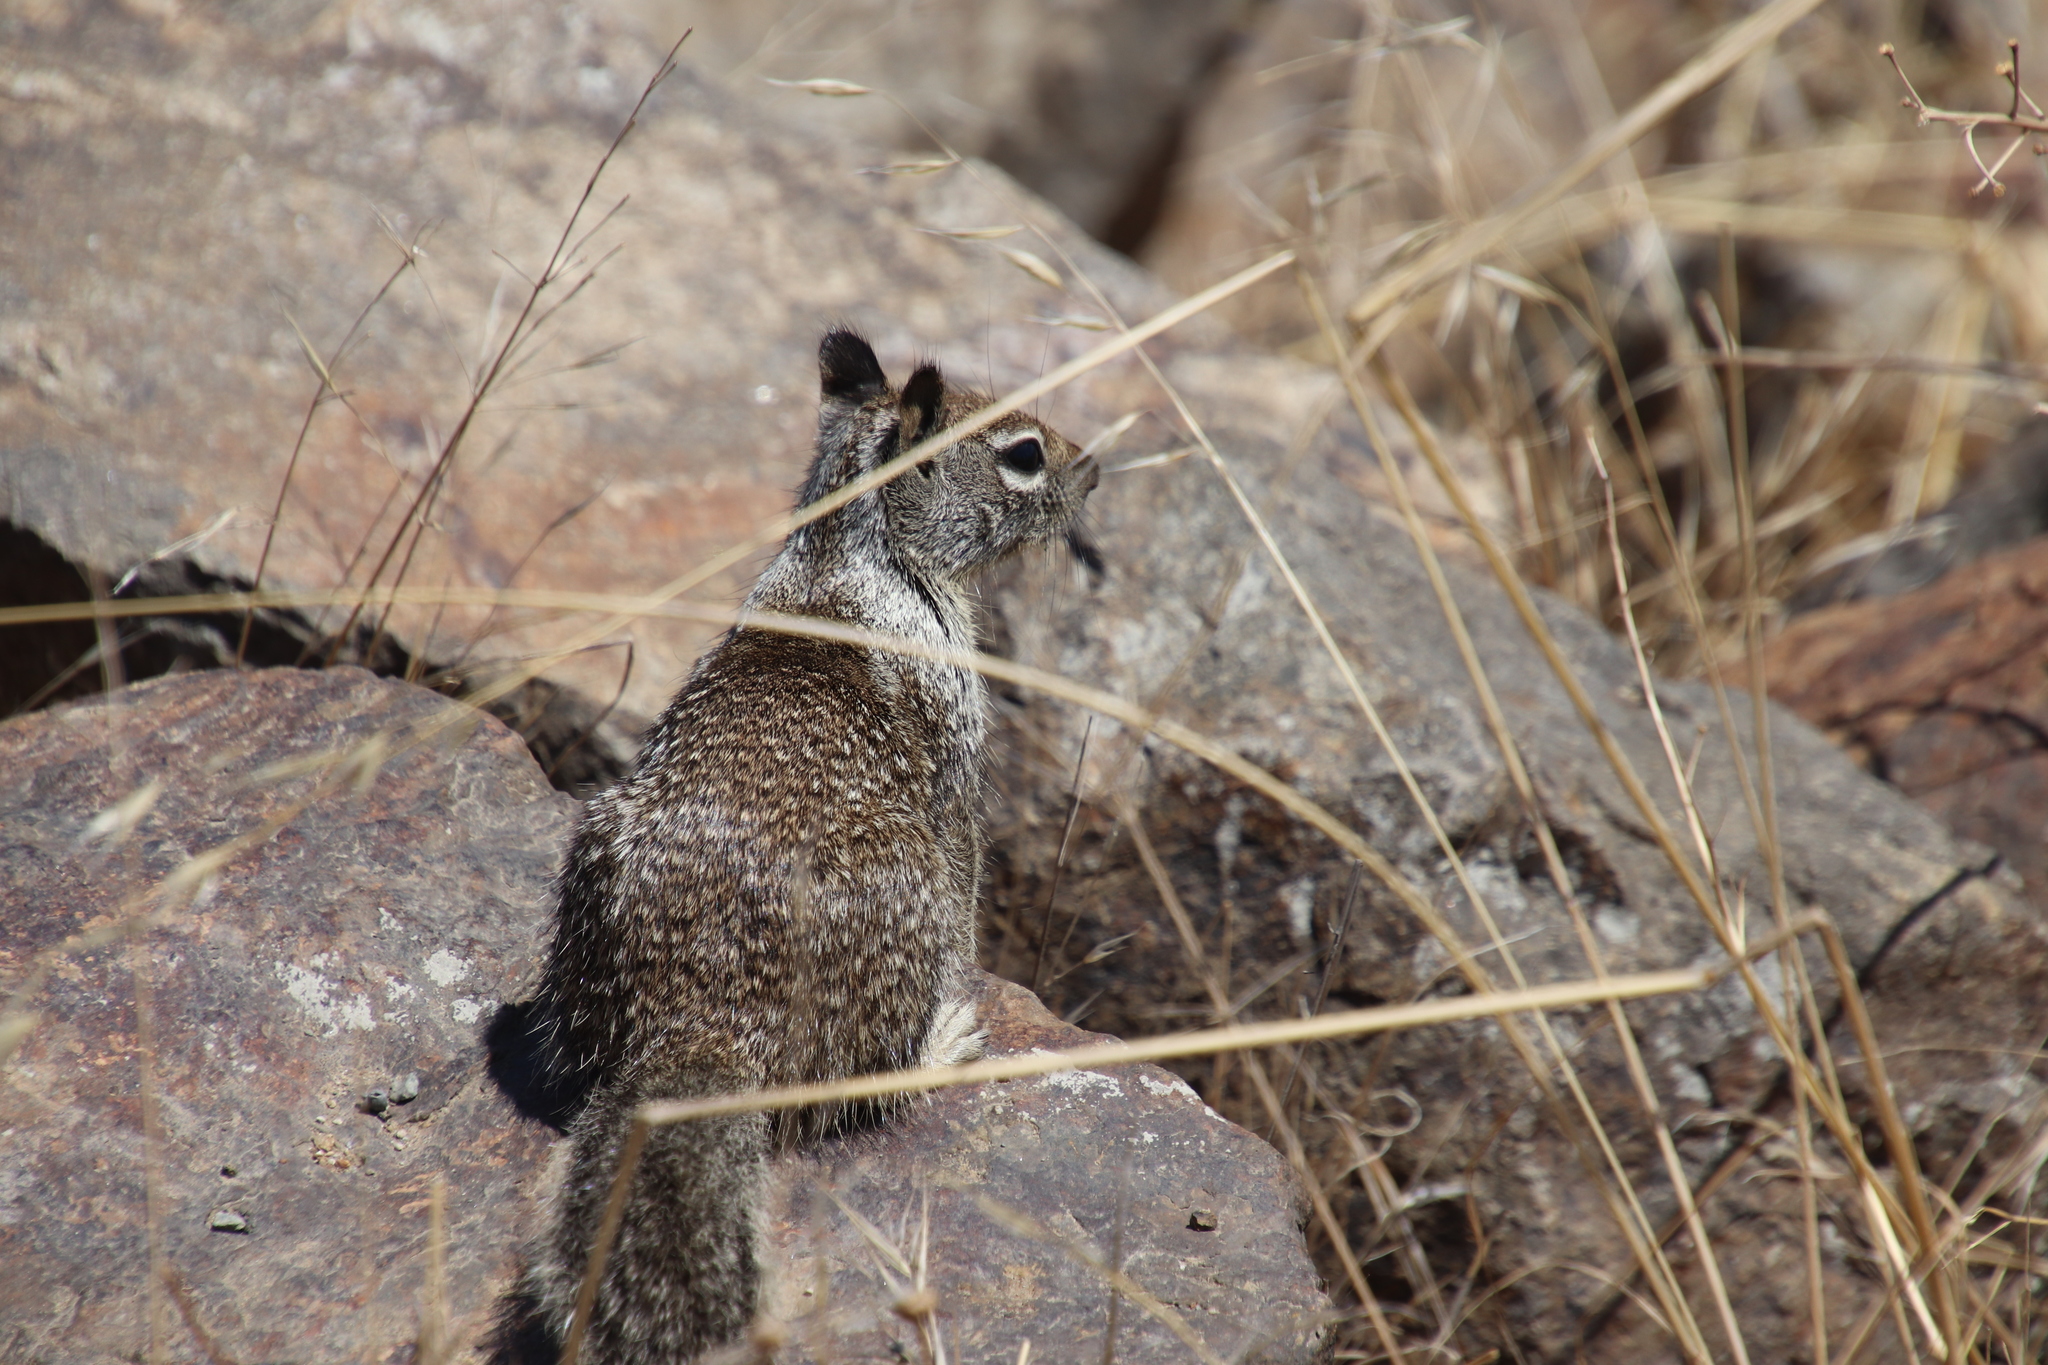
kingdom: Animalia
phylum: Chordata
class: Mammalia
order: Rodentia
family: Sciuridae
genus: Otospermophilus
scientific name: Otospermophilus beecheyi
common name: California ground squirrel
